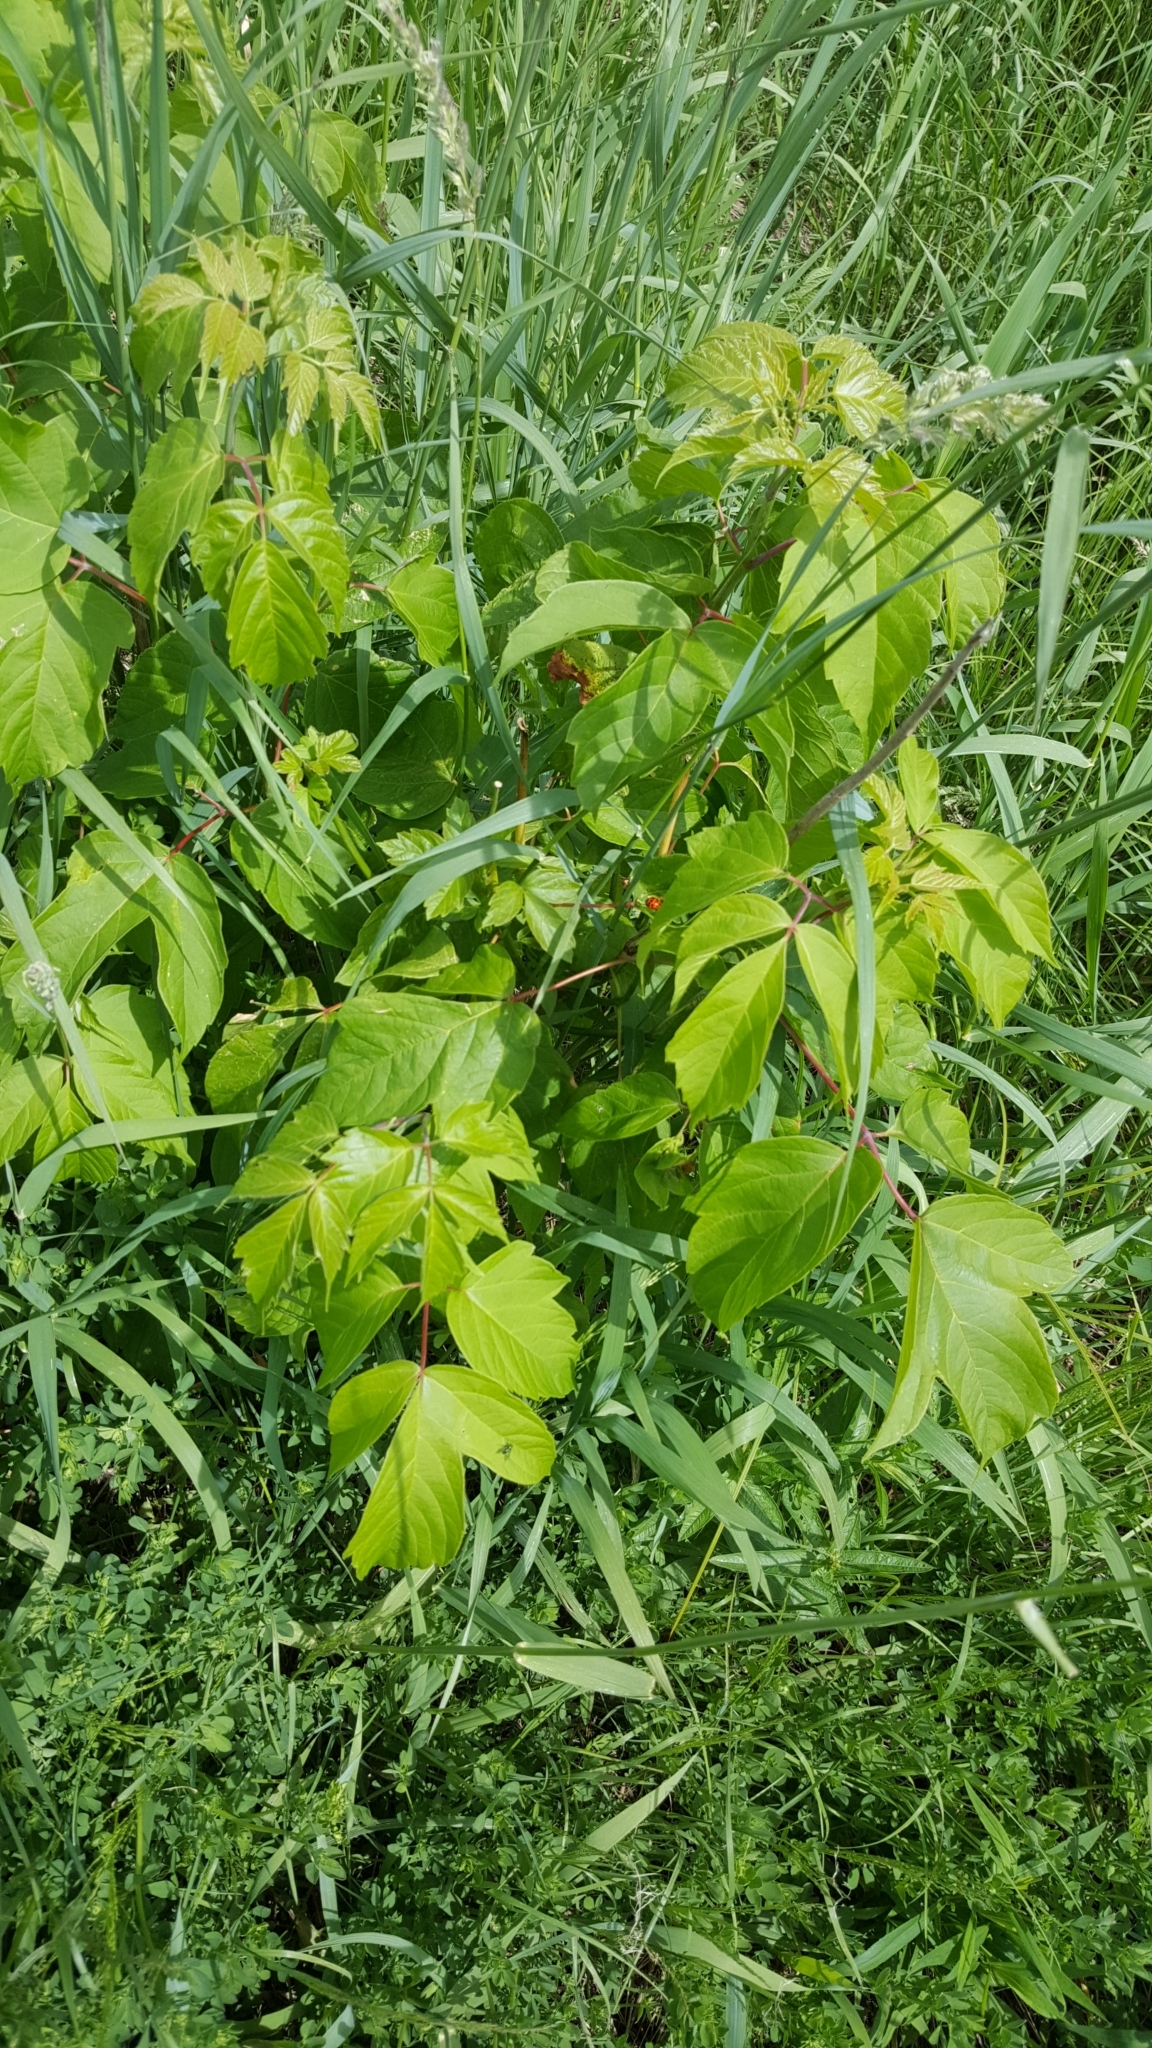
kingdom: Plantae
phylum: Tracheophyta
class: Magnoliopsida
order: Sapindales
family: Sapindaceae
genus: Acer
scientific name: Acer negundo
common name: Ashleaf maple
